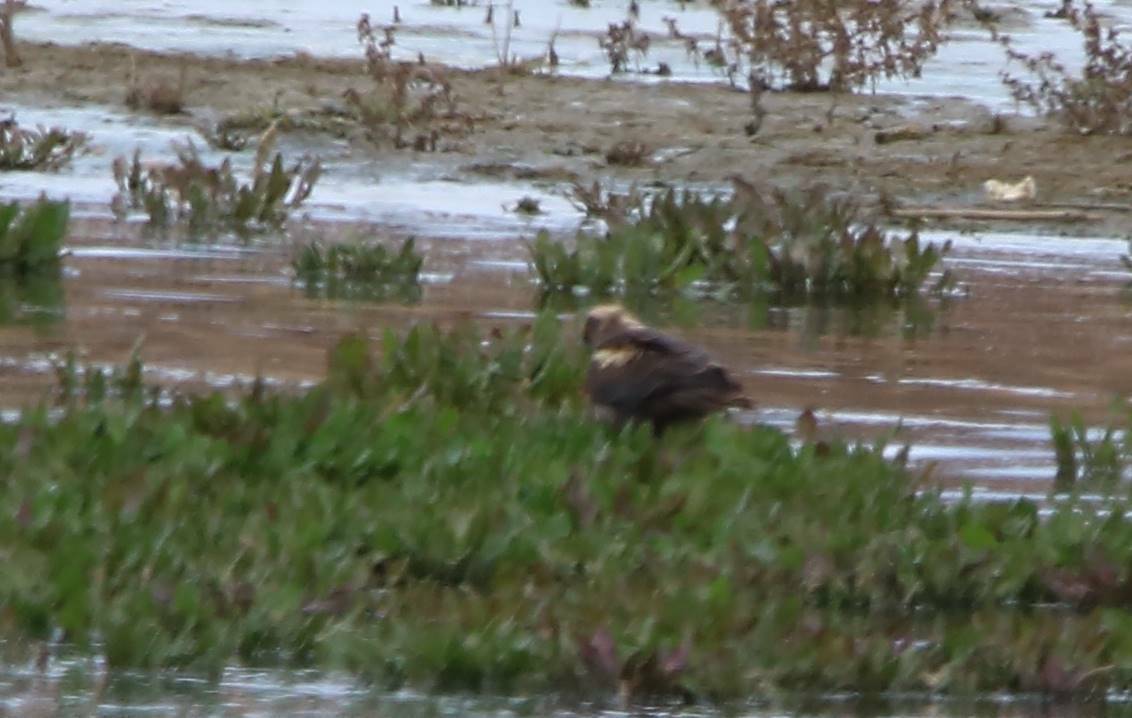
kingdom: Animalia
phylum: Chordata
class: Aves
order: Accipitriformes
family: Accipitridae
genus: Circus
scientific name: Circus aeruginosus
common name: Western marsh harrier
